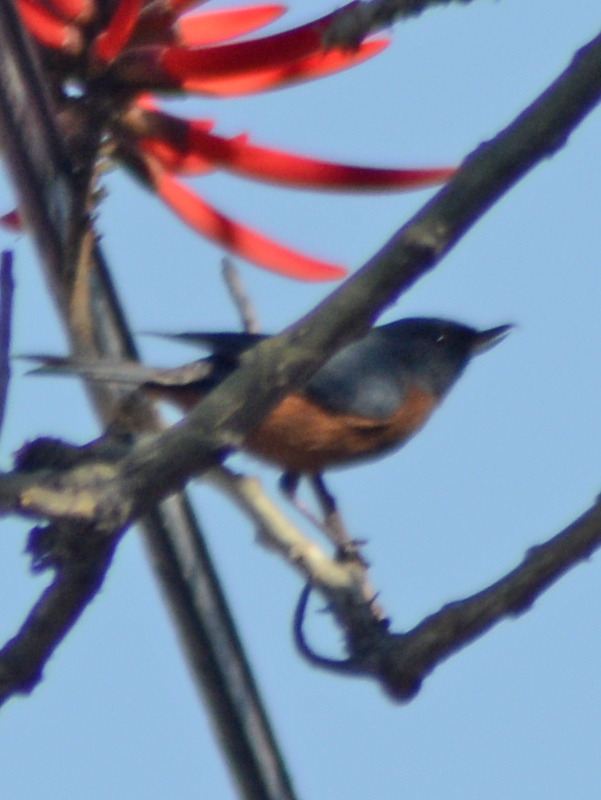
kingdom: Animalia
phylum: Chordata
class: Aves
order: Passeriformes
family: Thraupidae
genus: Diglossa
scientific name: Diglossa baritula
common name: Cinnamon-bellied flowerpiercer
